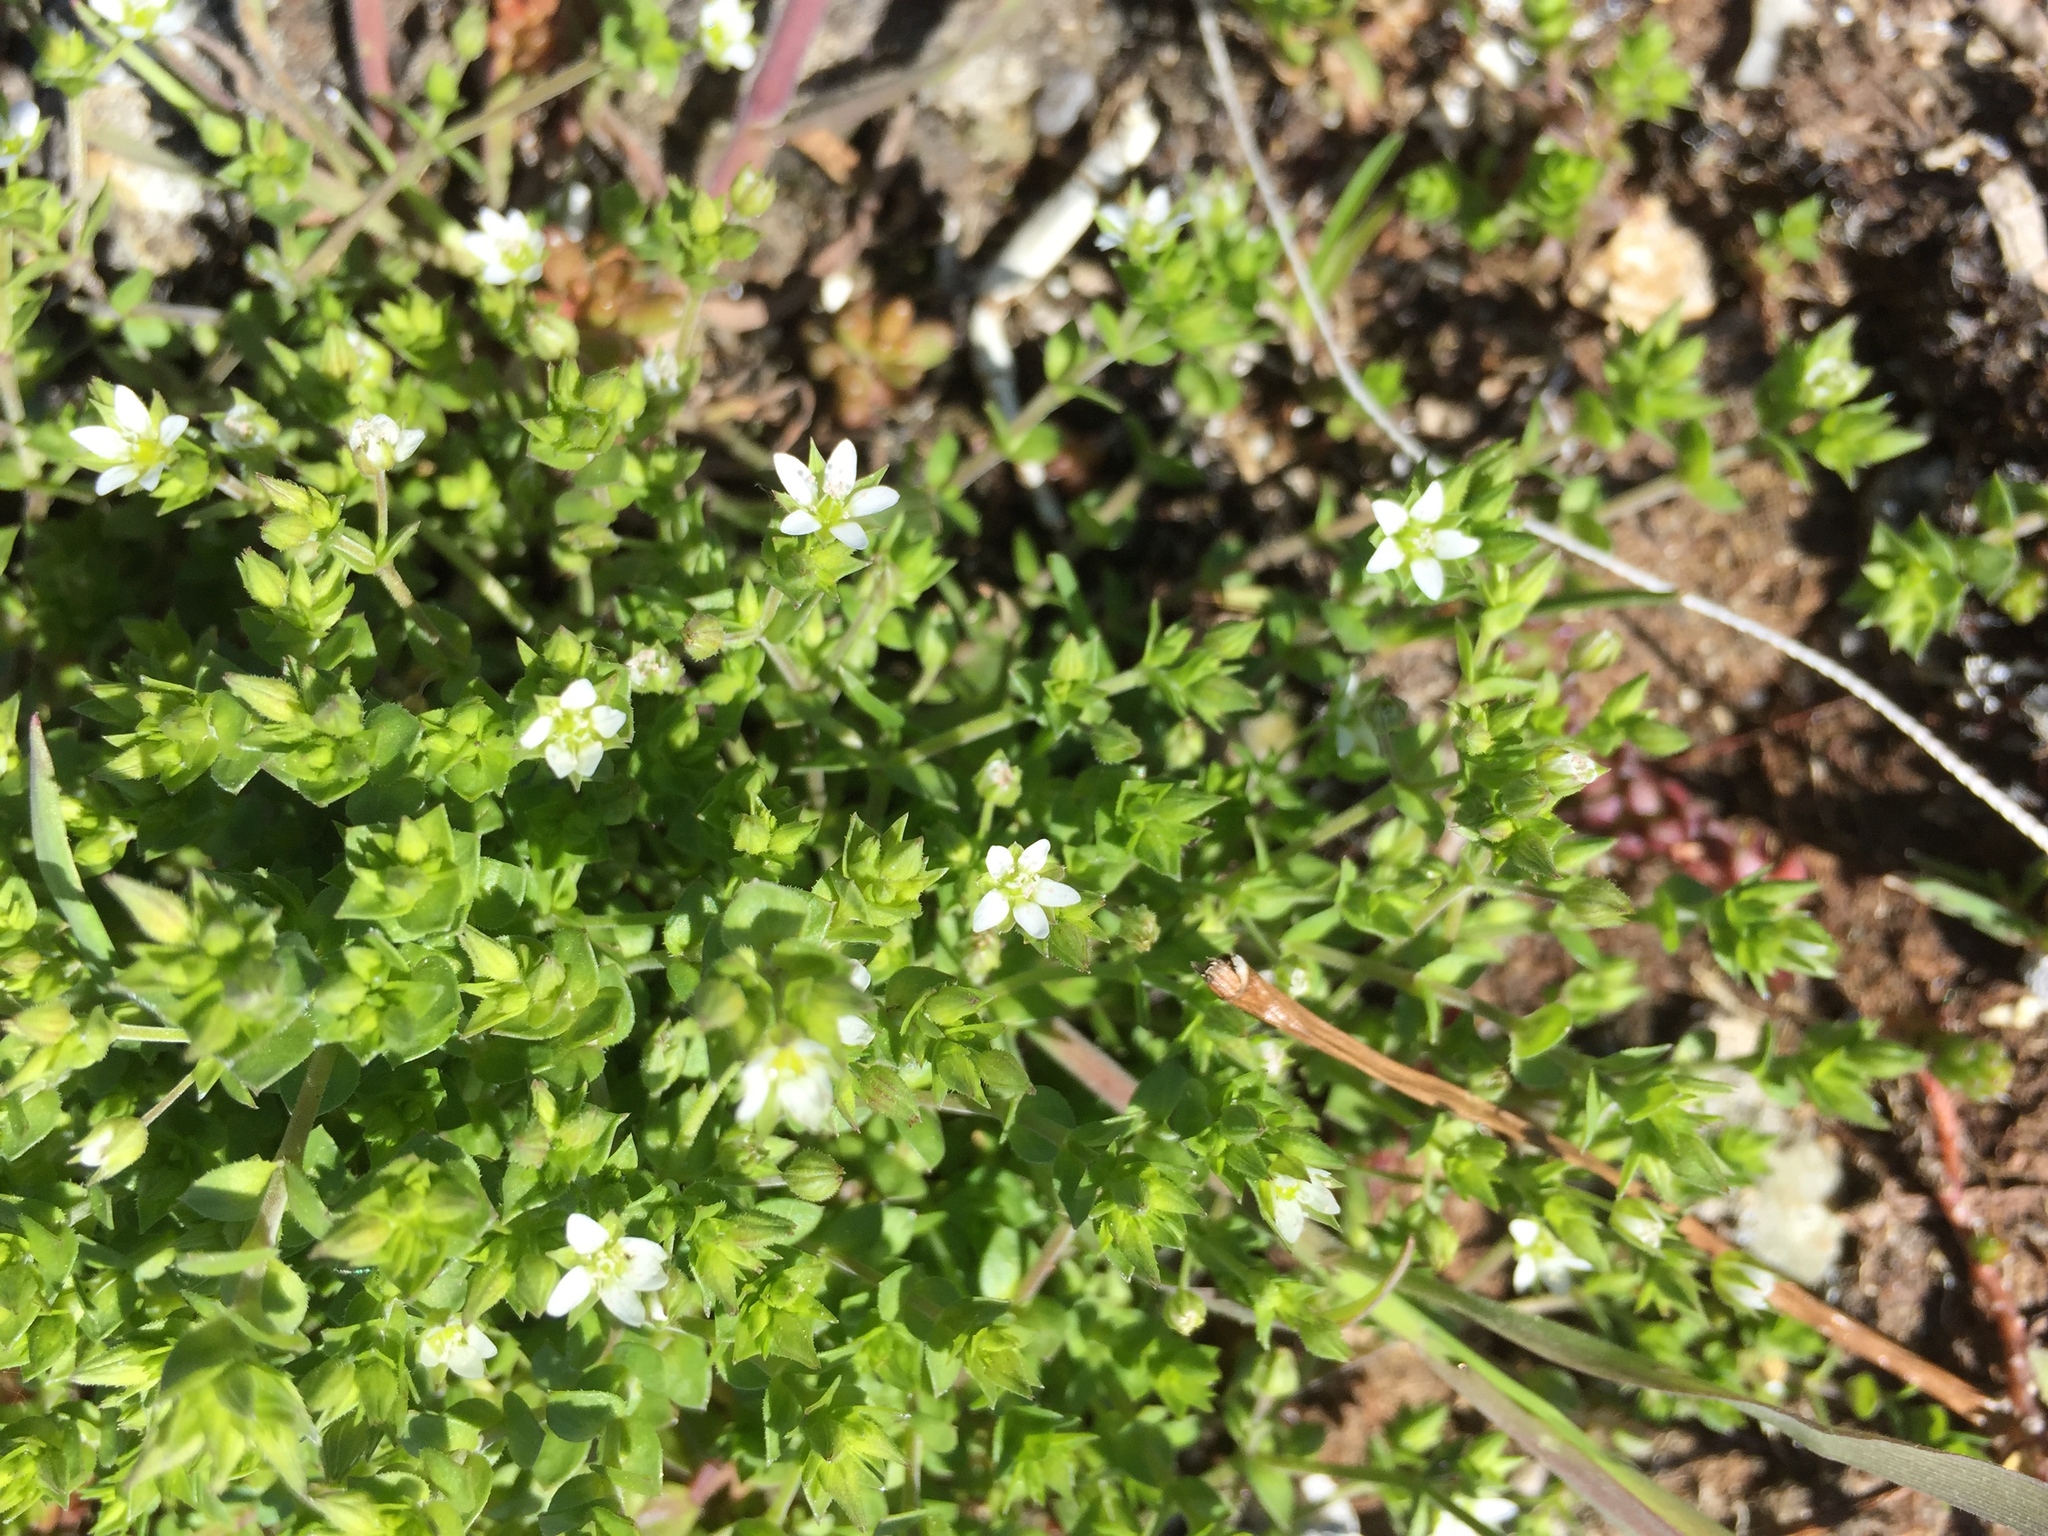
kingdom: Plantae
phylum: Tracheophyta
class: Magnoliopsida
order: Caryophyllales
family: Caryophyllaceae
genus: Arenaria
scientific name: Arenaria serpyllifolia
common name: Thyme-leaved sandwort
